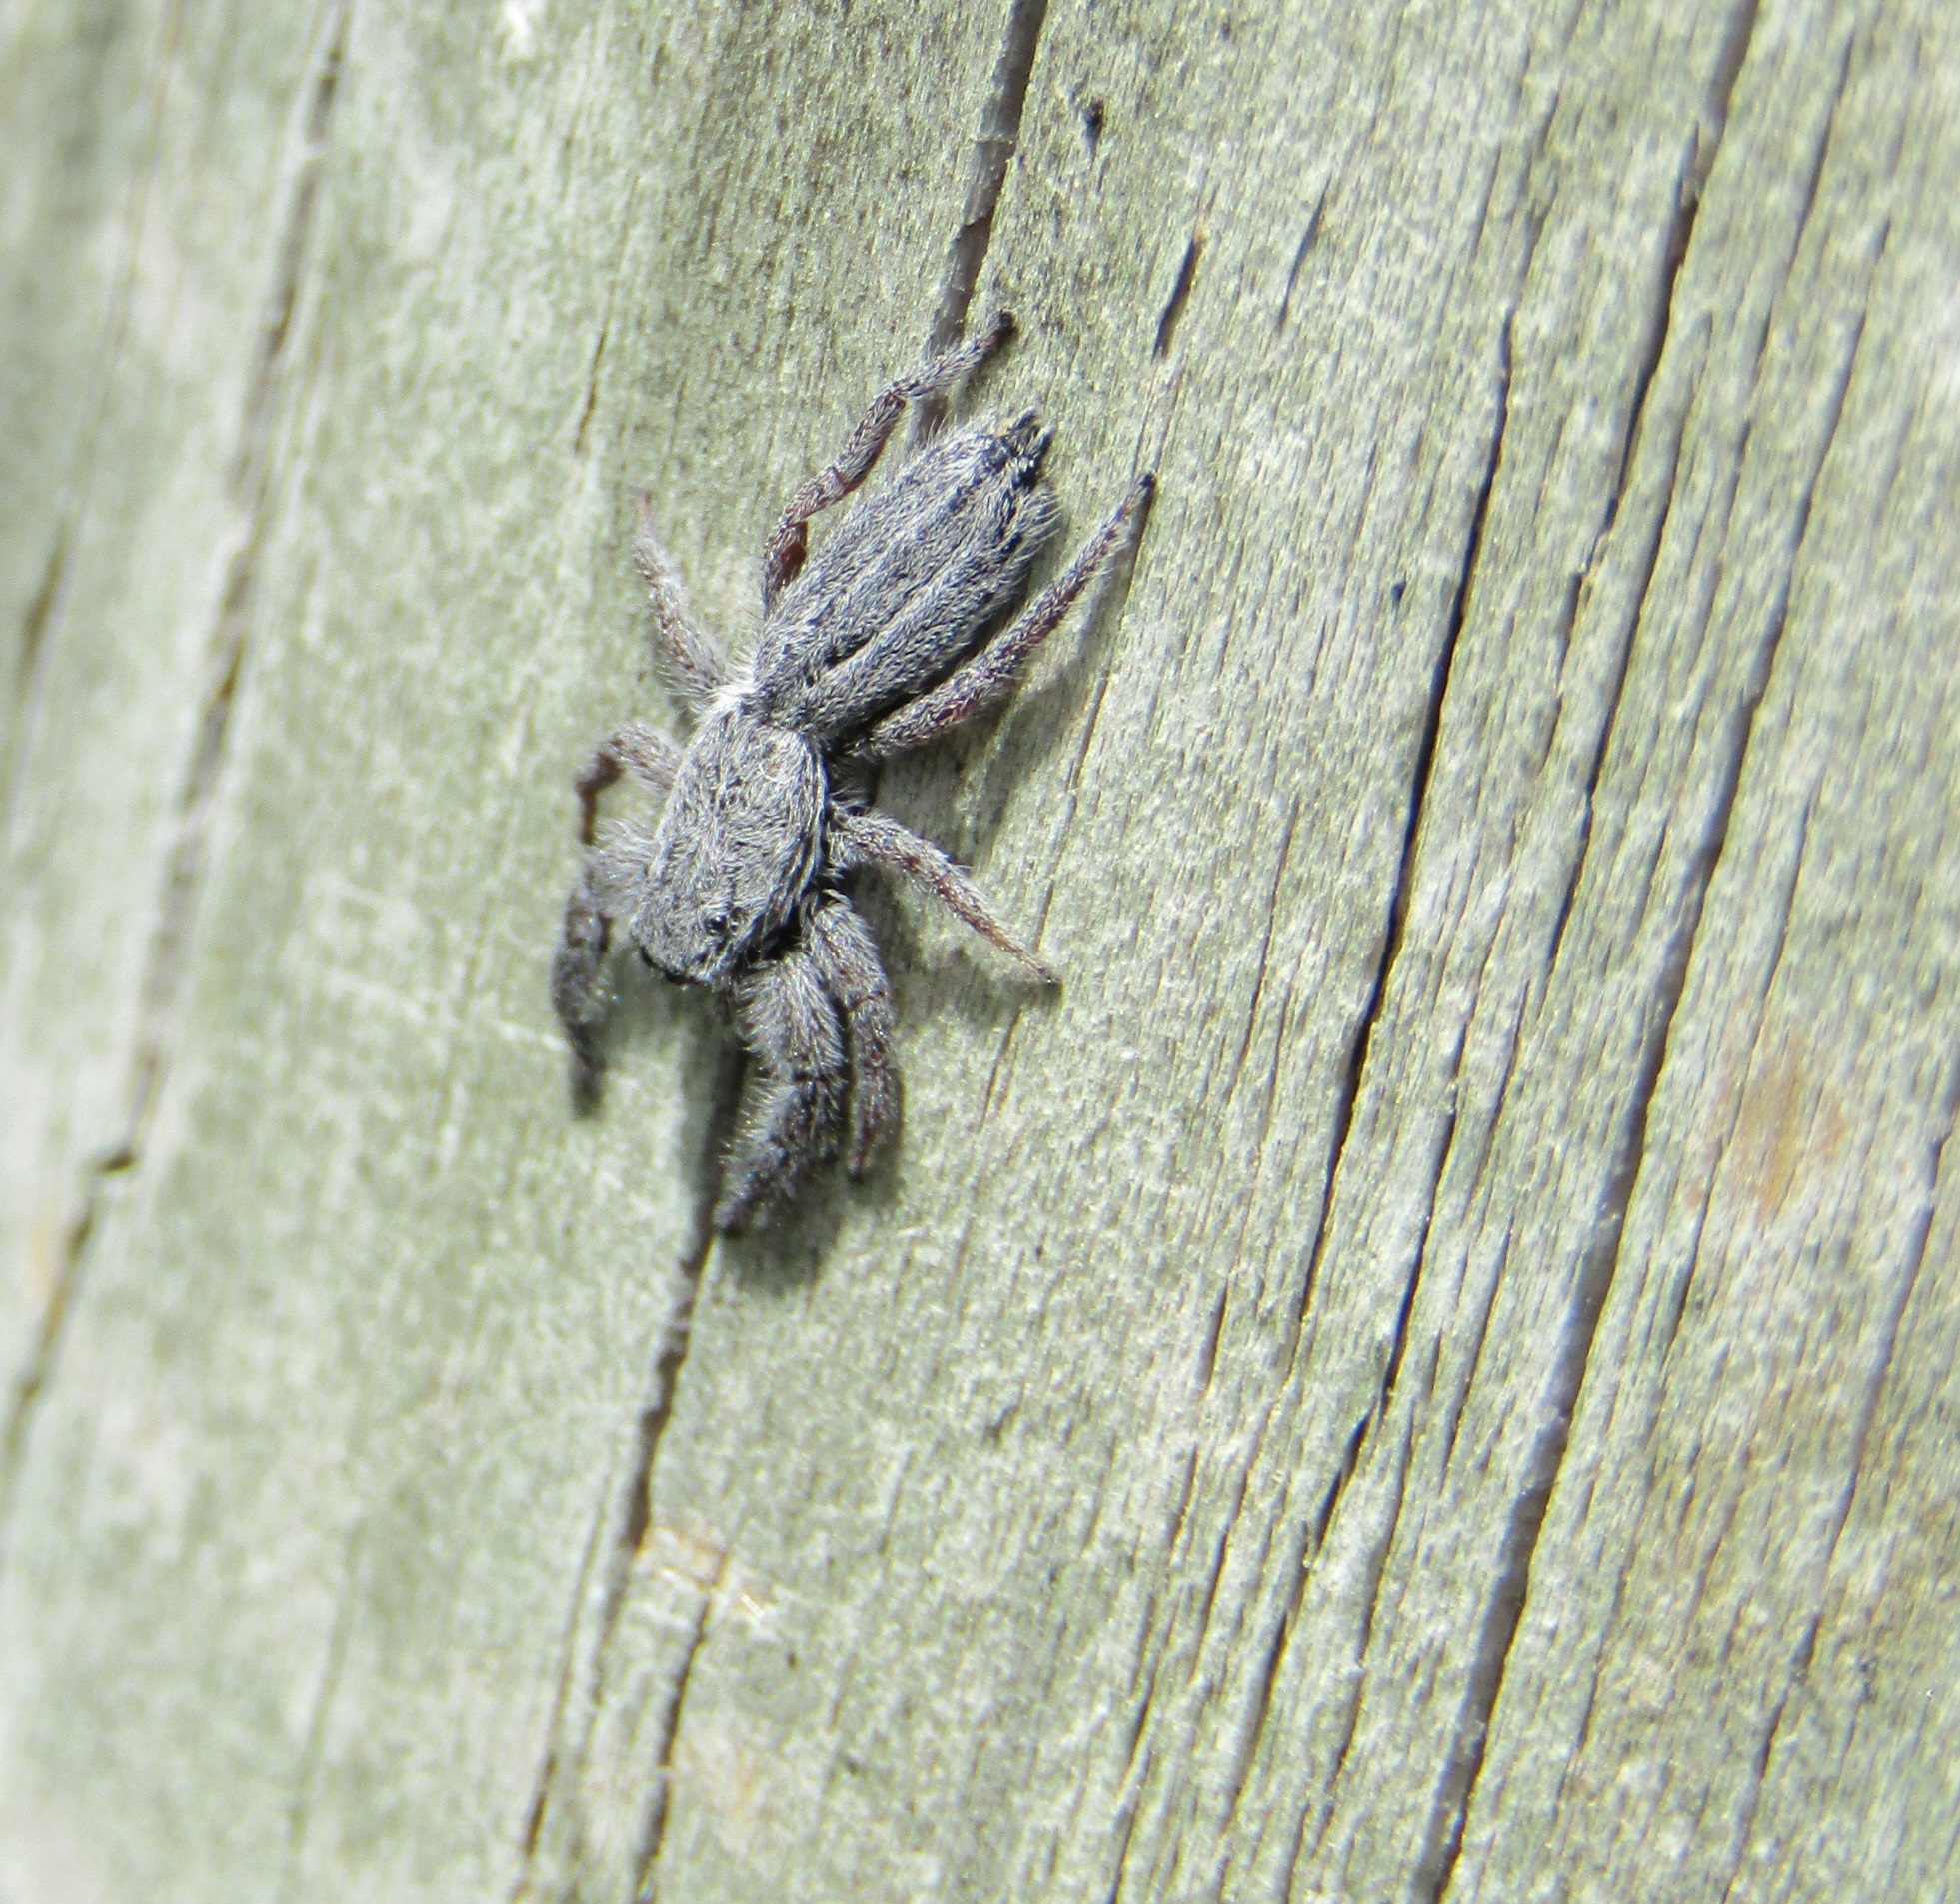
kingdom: Animalia
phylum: Arthropoda
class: Arachnida
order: Araneae
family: Salticidae
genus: Holoplatys
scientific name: Holoplatys apressus
